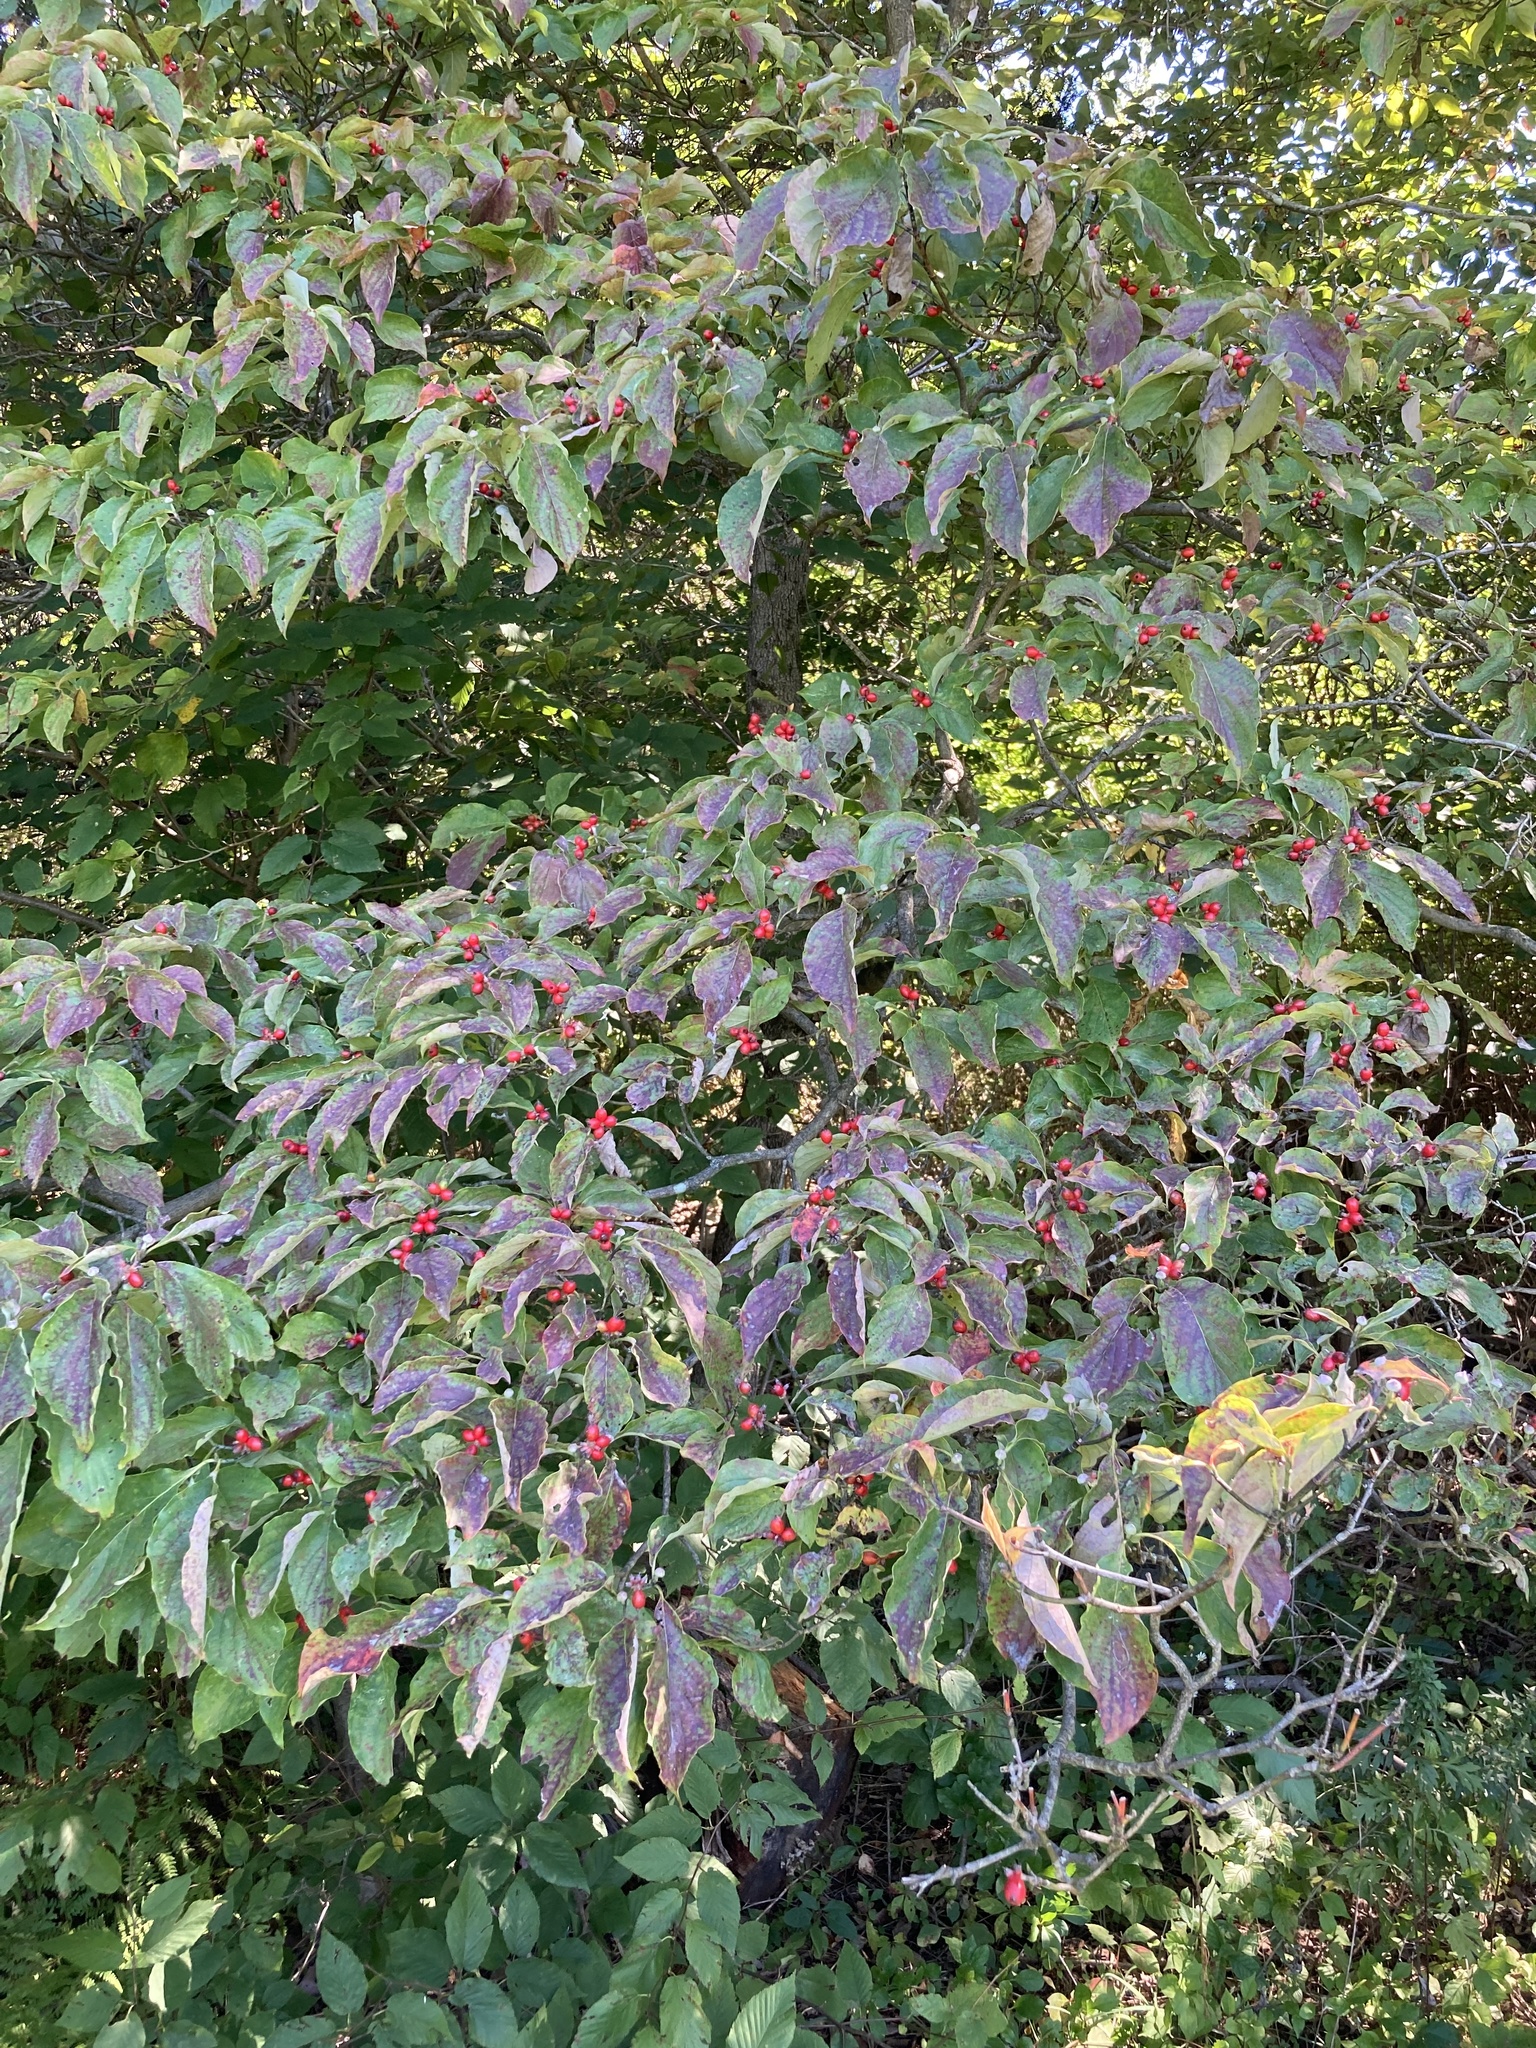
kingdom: Plantae
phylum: Tracheophyta
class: Magnoliopsida
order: Cornales
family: Cornaceae
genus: Cornus
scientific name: Cornus florida
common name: Flowering dogwood
